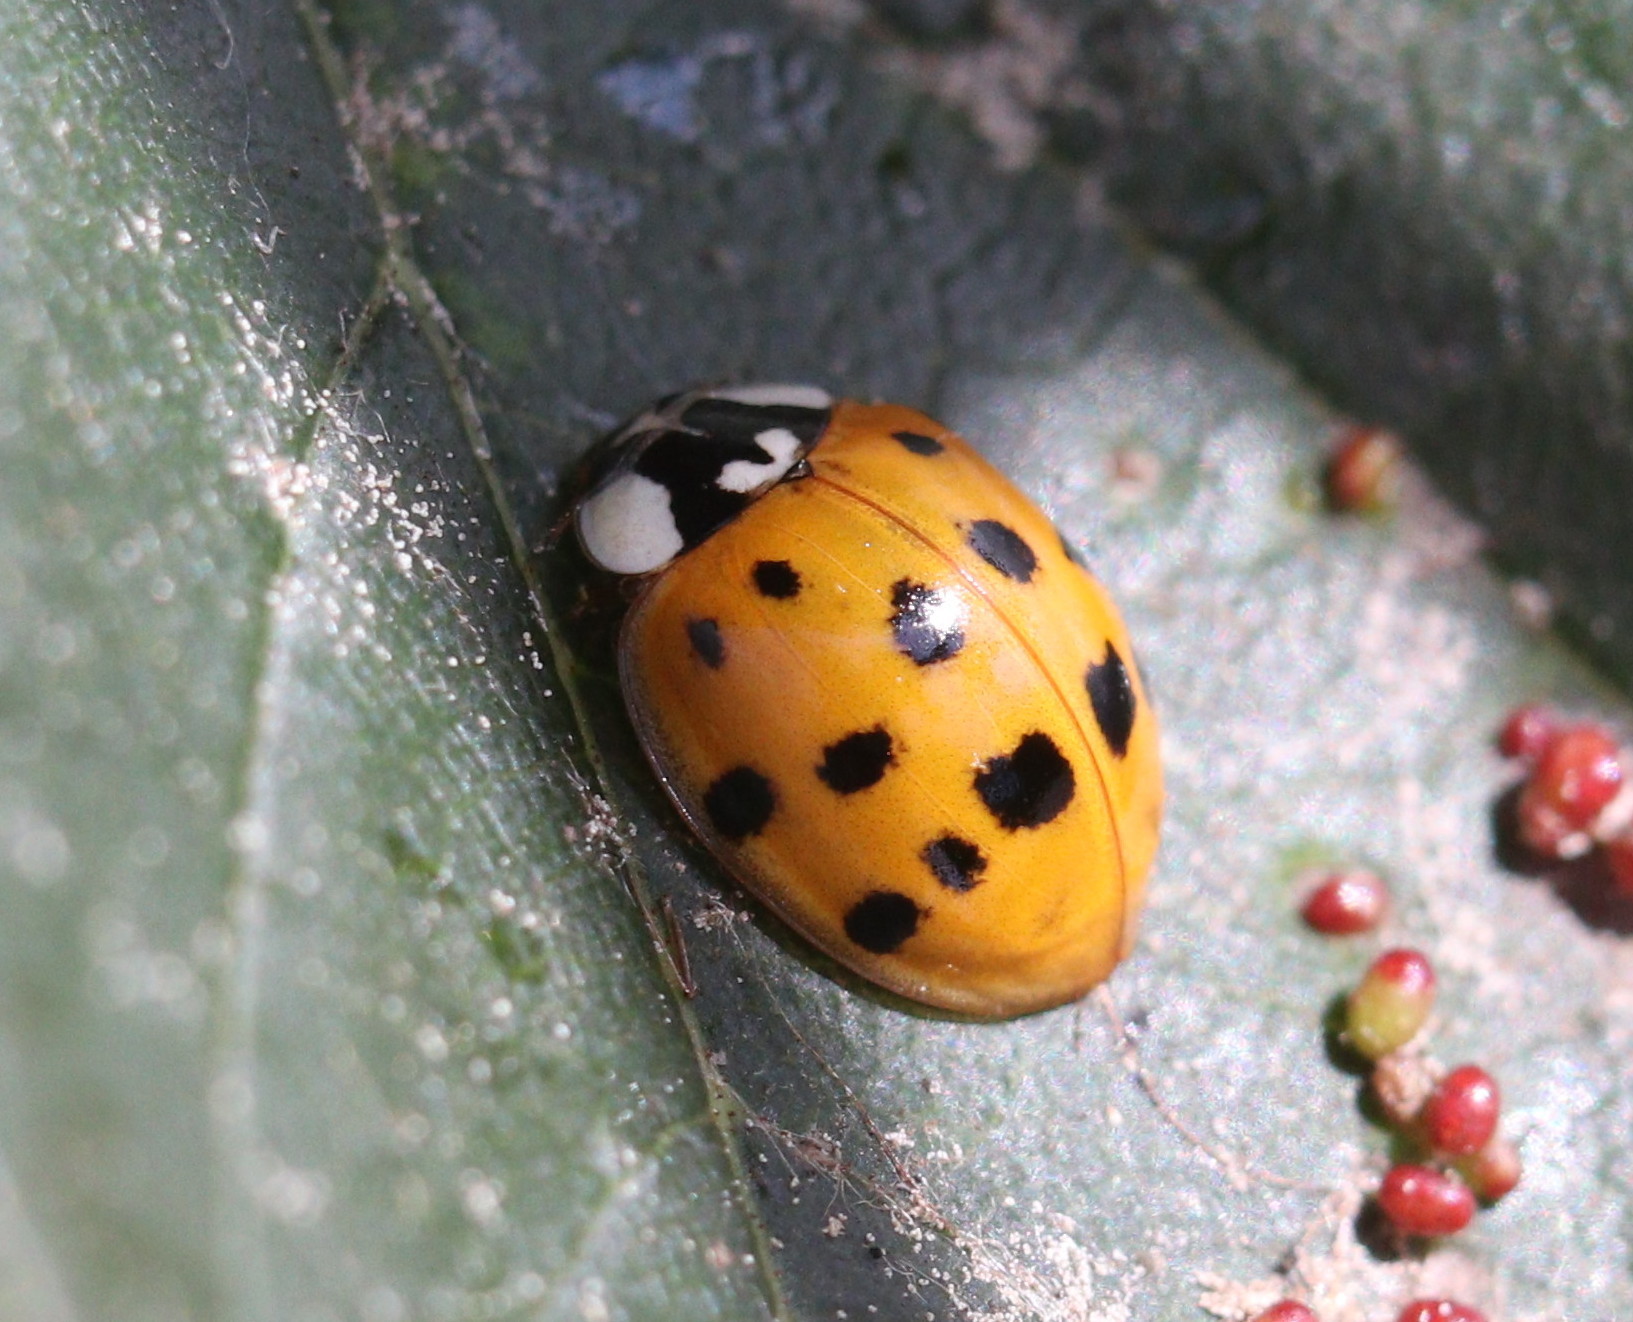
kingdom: Animalia
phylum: Arthropoda
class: Insecta
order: Coleoptera
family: Coccinellidae
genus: Harmonia
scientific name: Harmonia axyridis
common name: Harlequin ladybird
